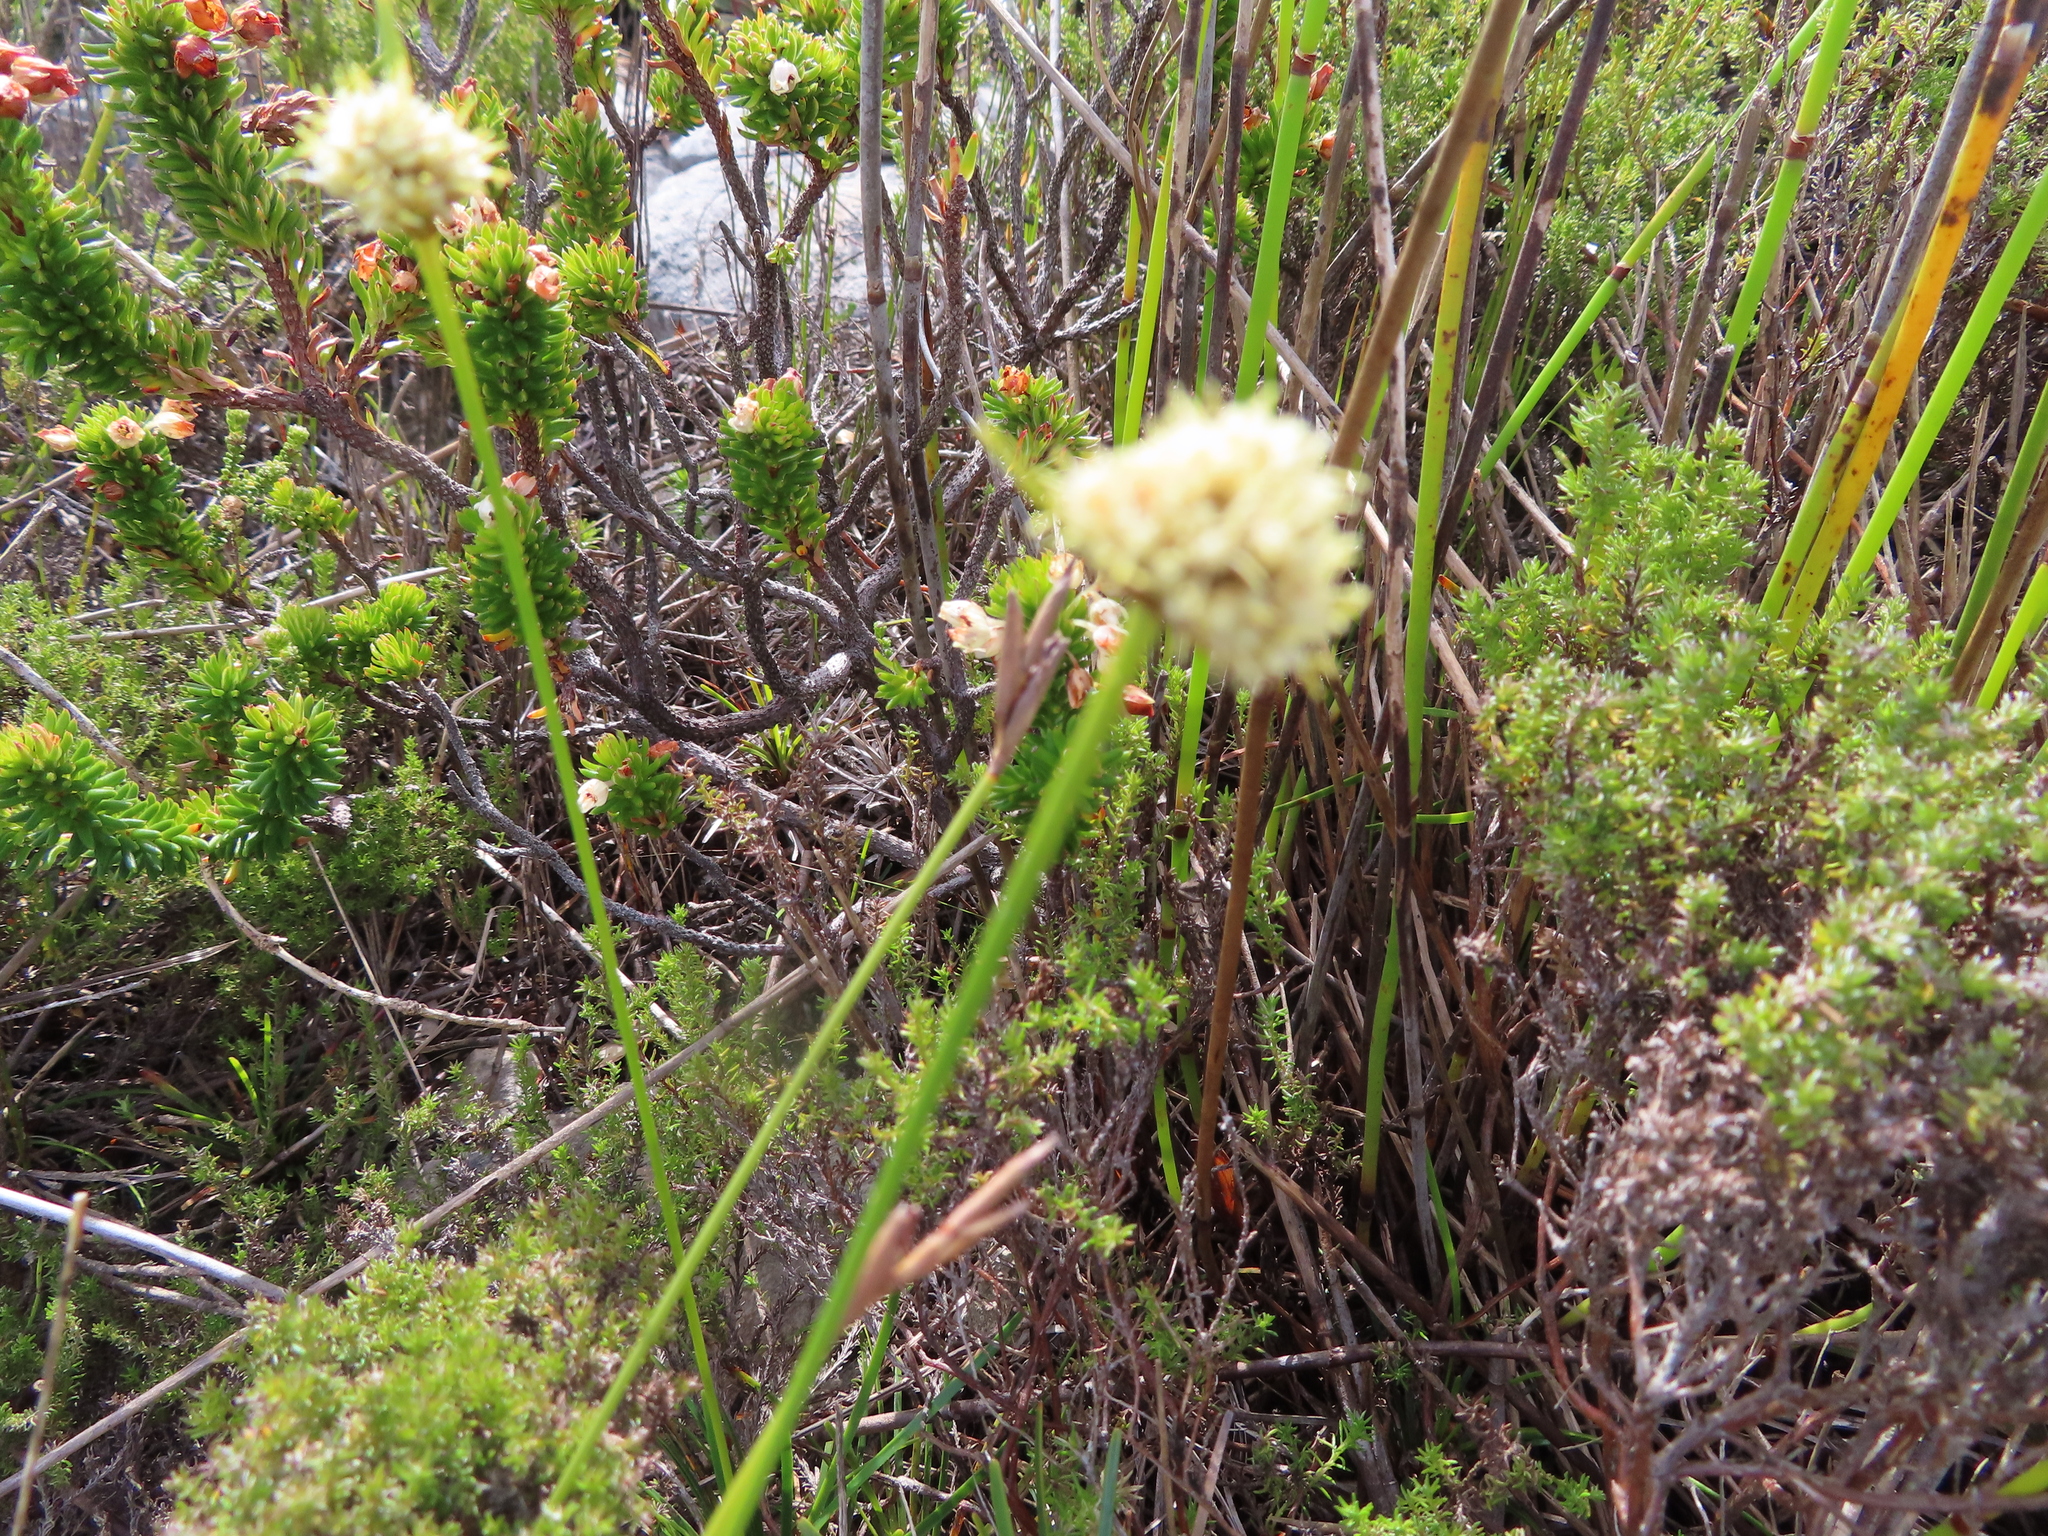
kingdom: Plantae
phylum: Tracheophyta
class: Liliopsida
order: Poales
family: Cyperaceae
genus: Ficinia
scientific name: Ficinia praemorsa
